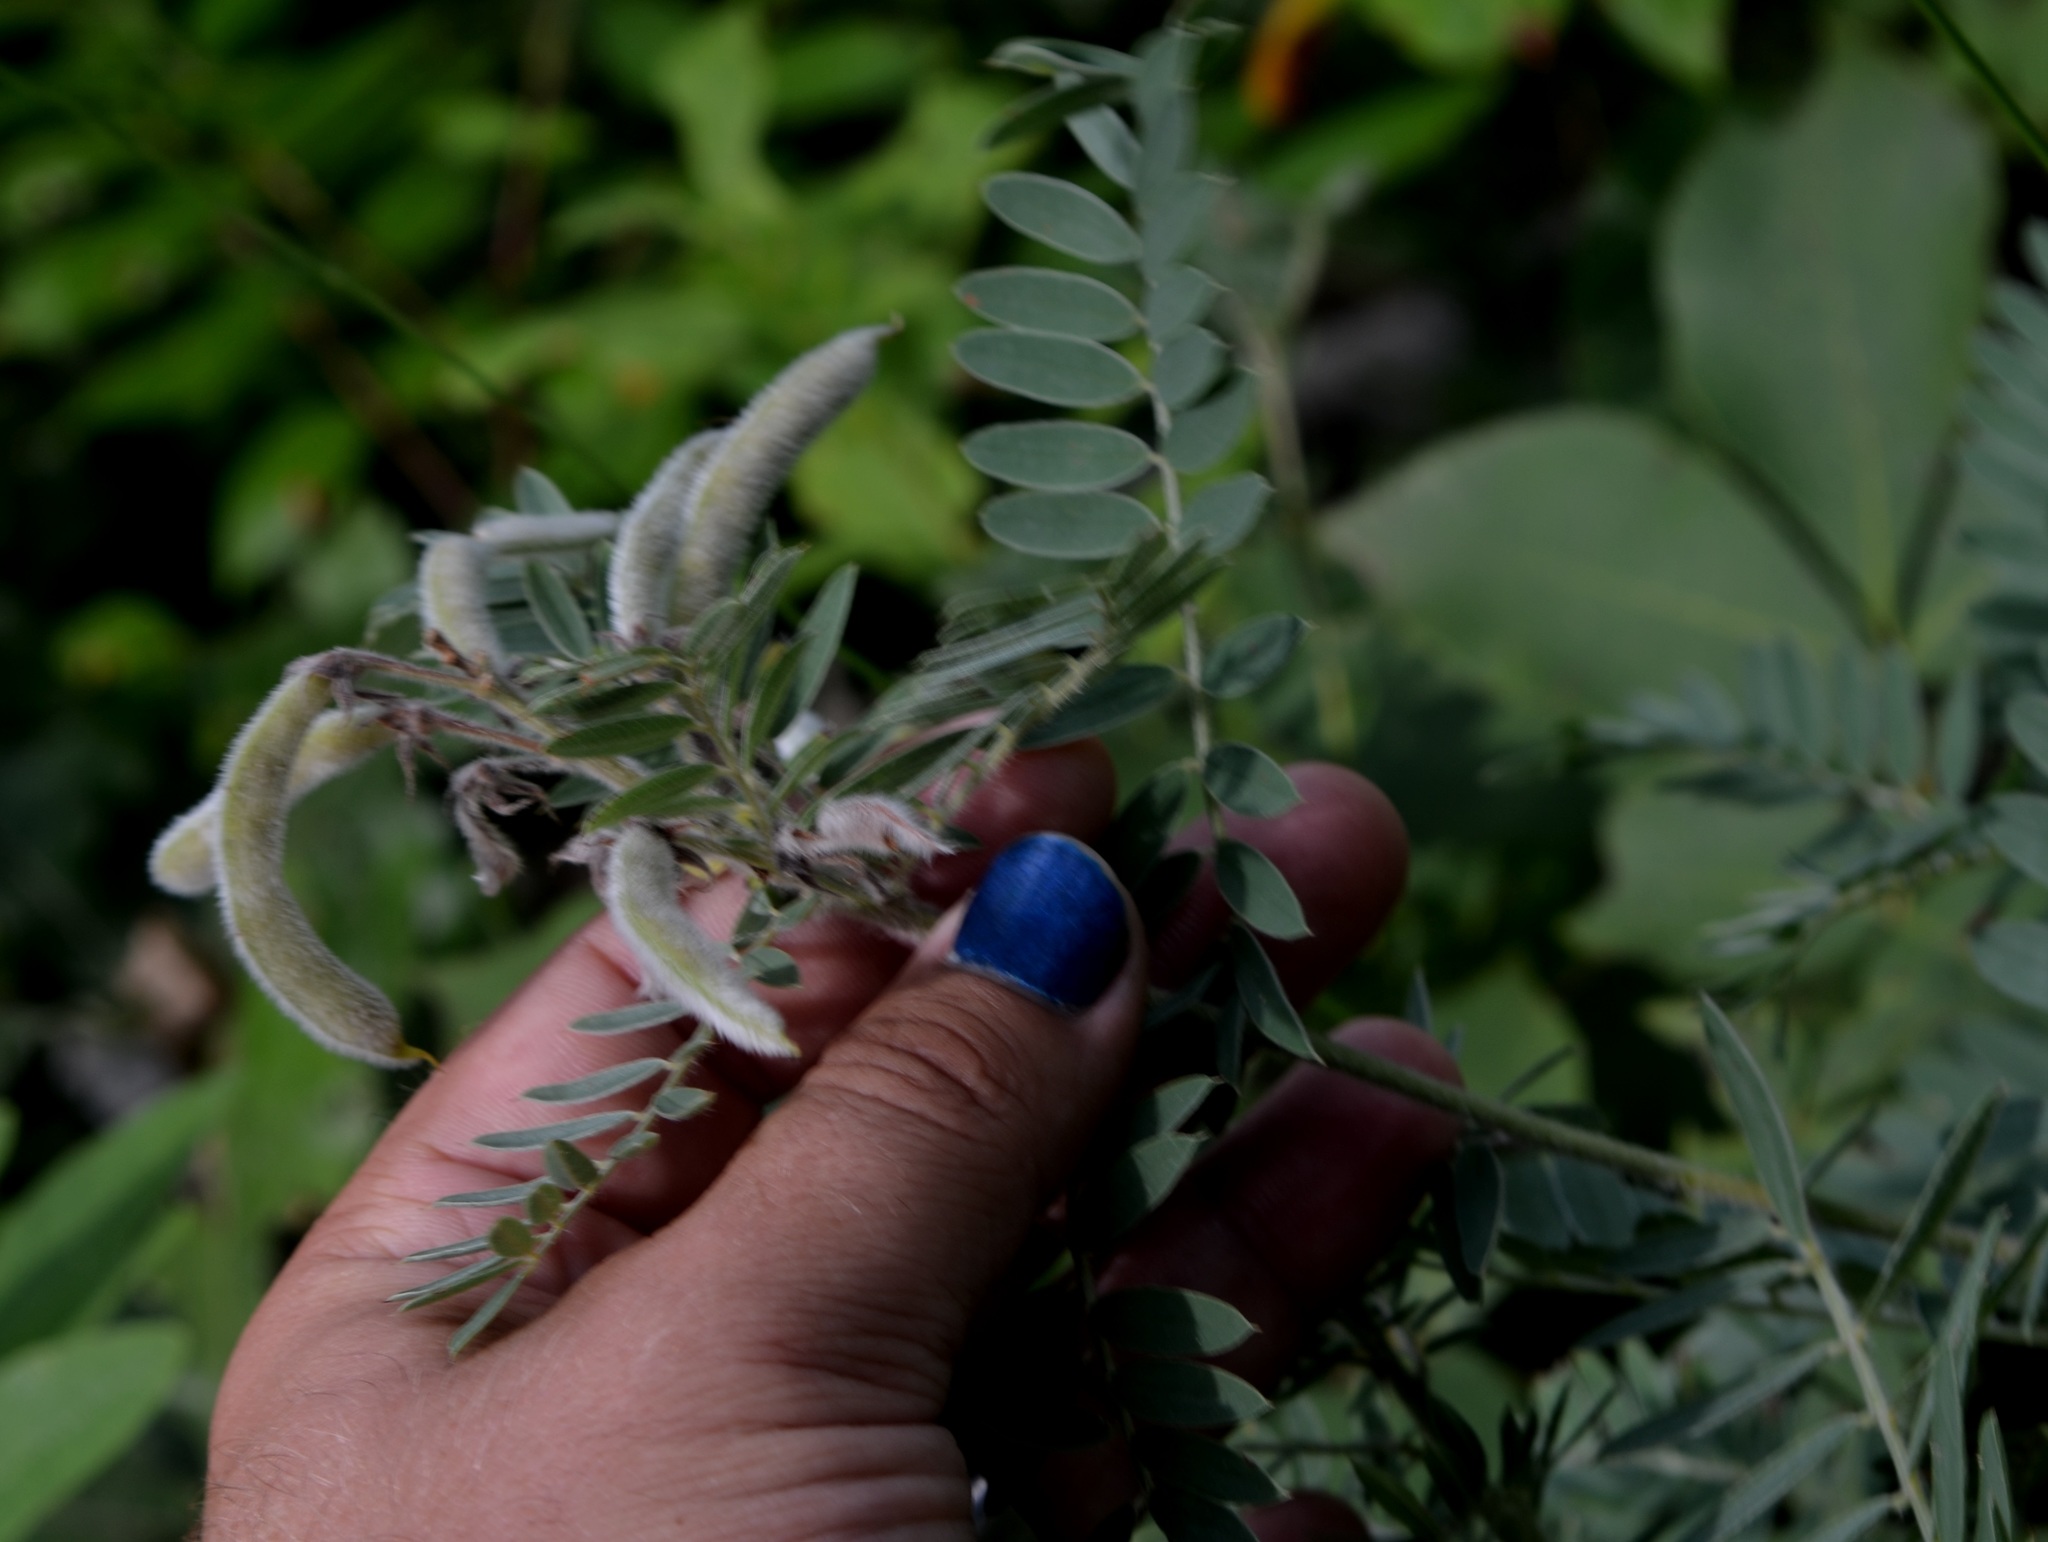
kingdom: Plantae
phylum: Tracheophyta
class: Magnoliopsida
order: Fabales
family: Fabaceae
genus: Tephrosia
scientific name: Tephrosia virginiana
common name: Rabbit-pea
